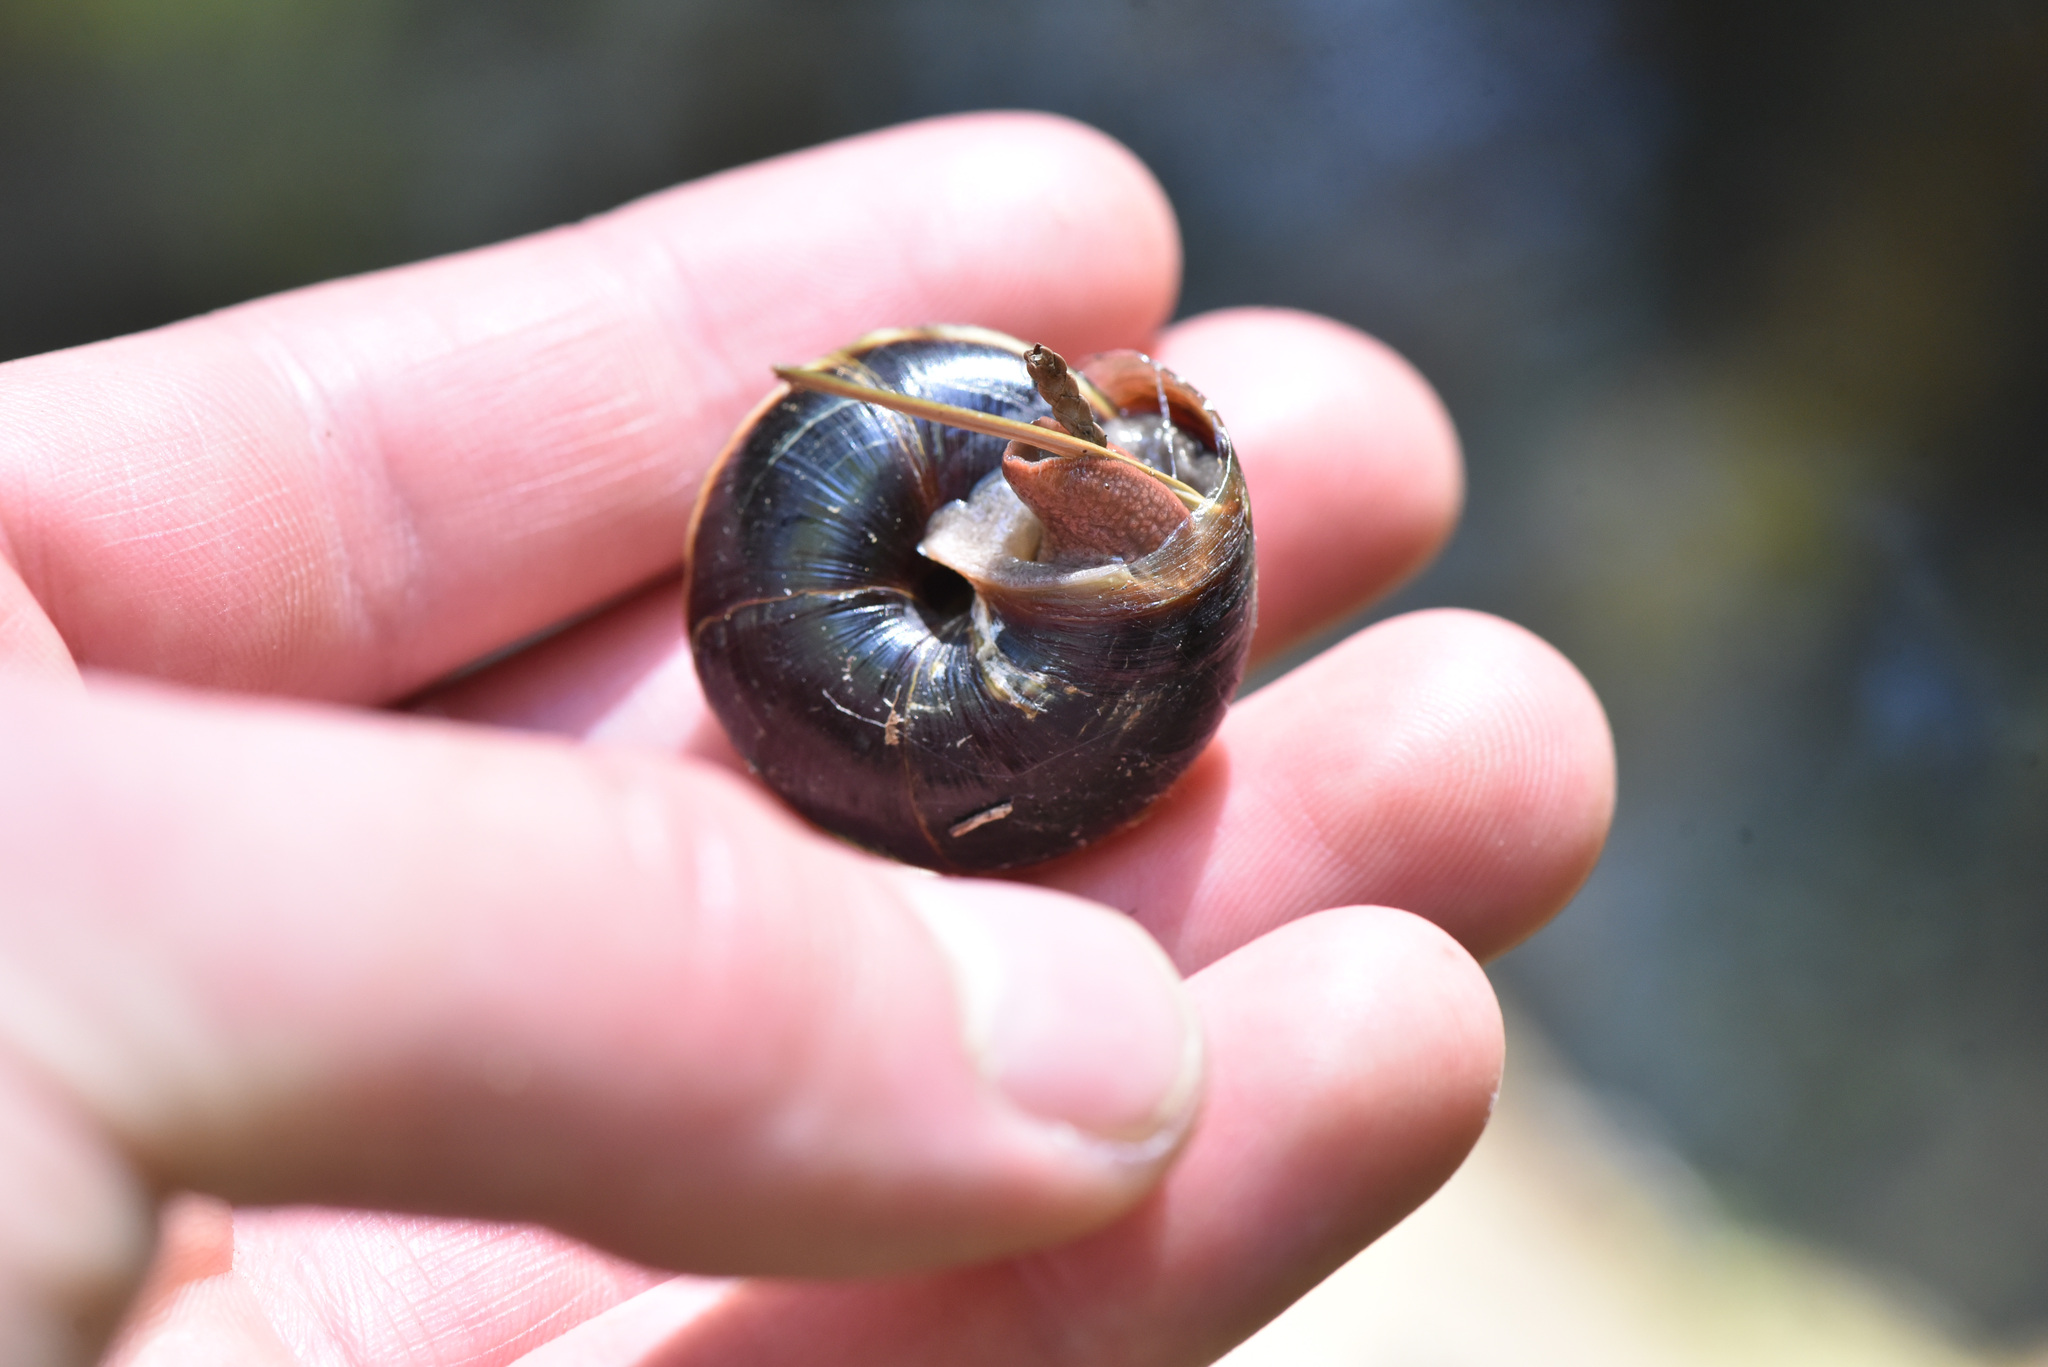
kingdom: Animalia
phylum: Mollusca
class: Gastropoda
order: Stylommatophora
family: Xanthonychidae
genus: Monadenia
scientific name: Monadenia fidelis
